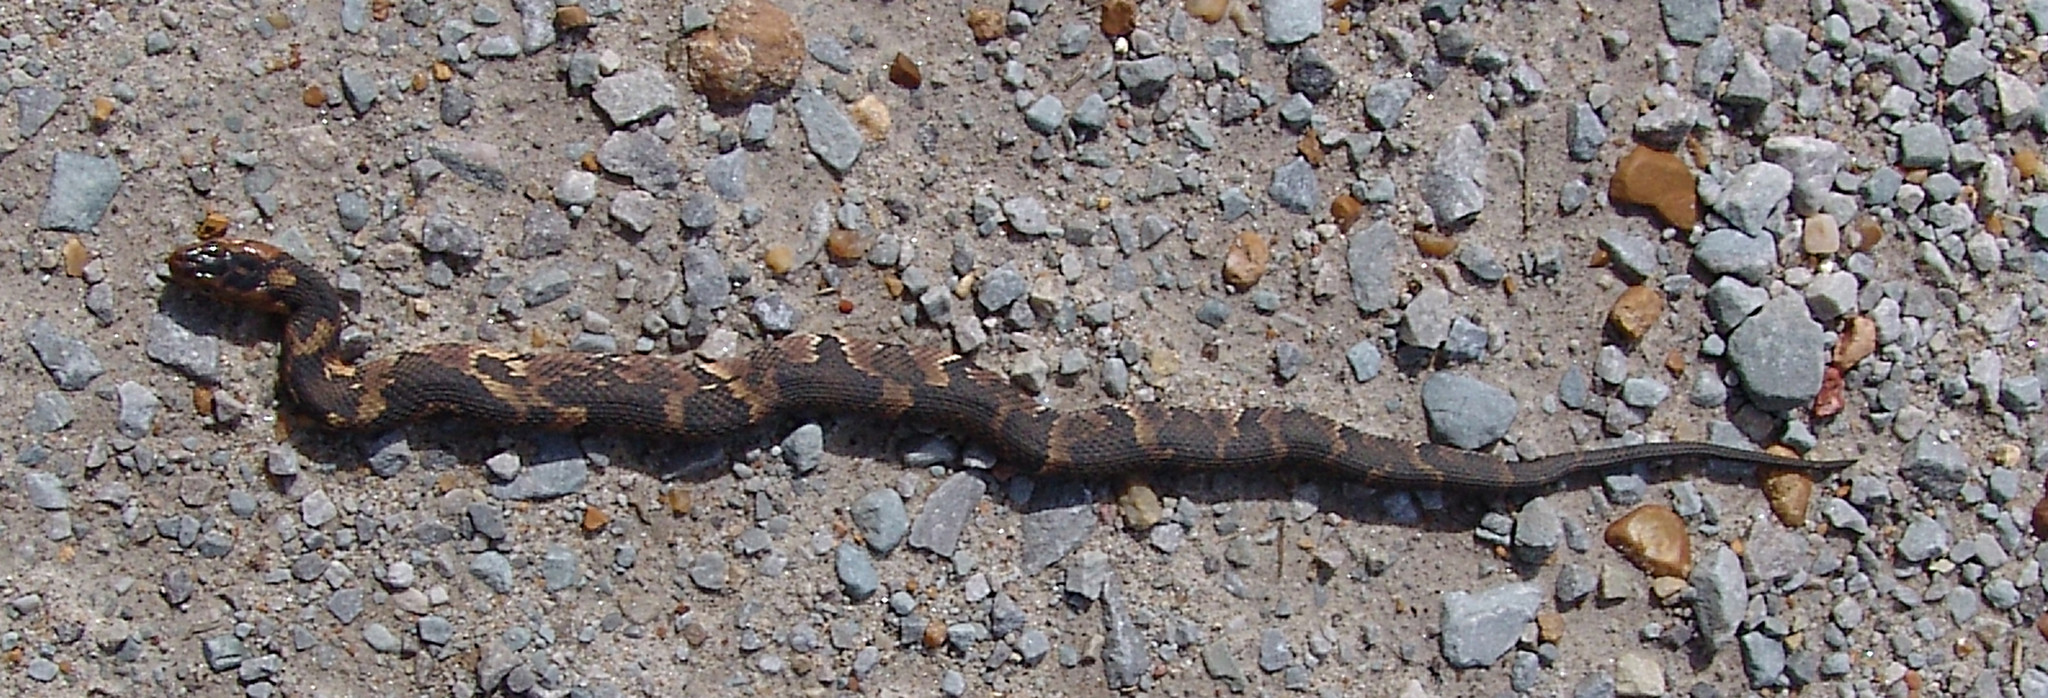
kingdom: Animalia
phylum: Chordata
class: Squamata
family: Colubridae
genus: Nerodia
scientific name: Nerodia fasciata
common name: Southern water snake
